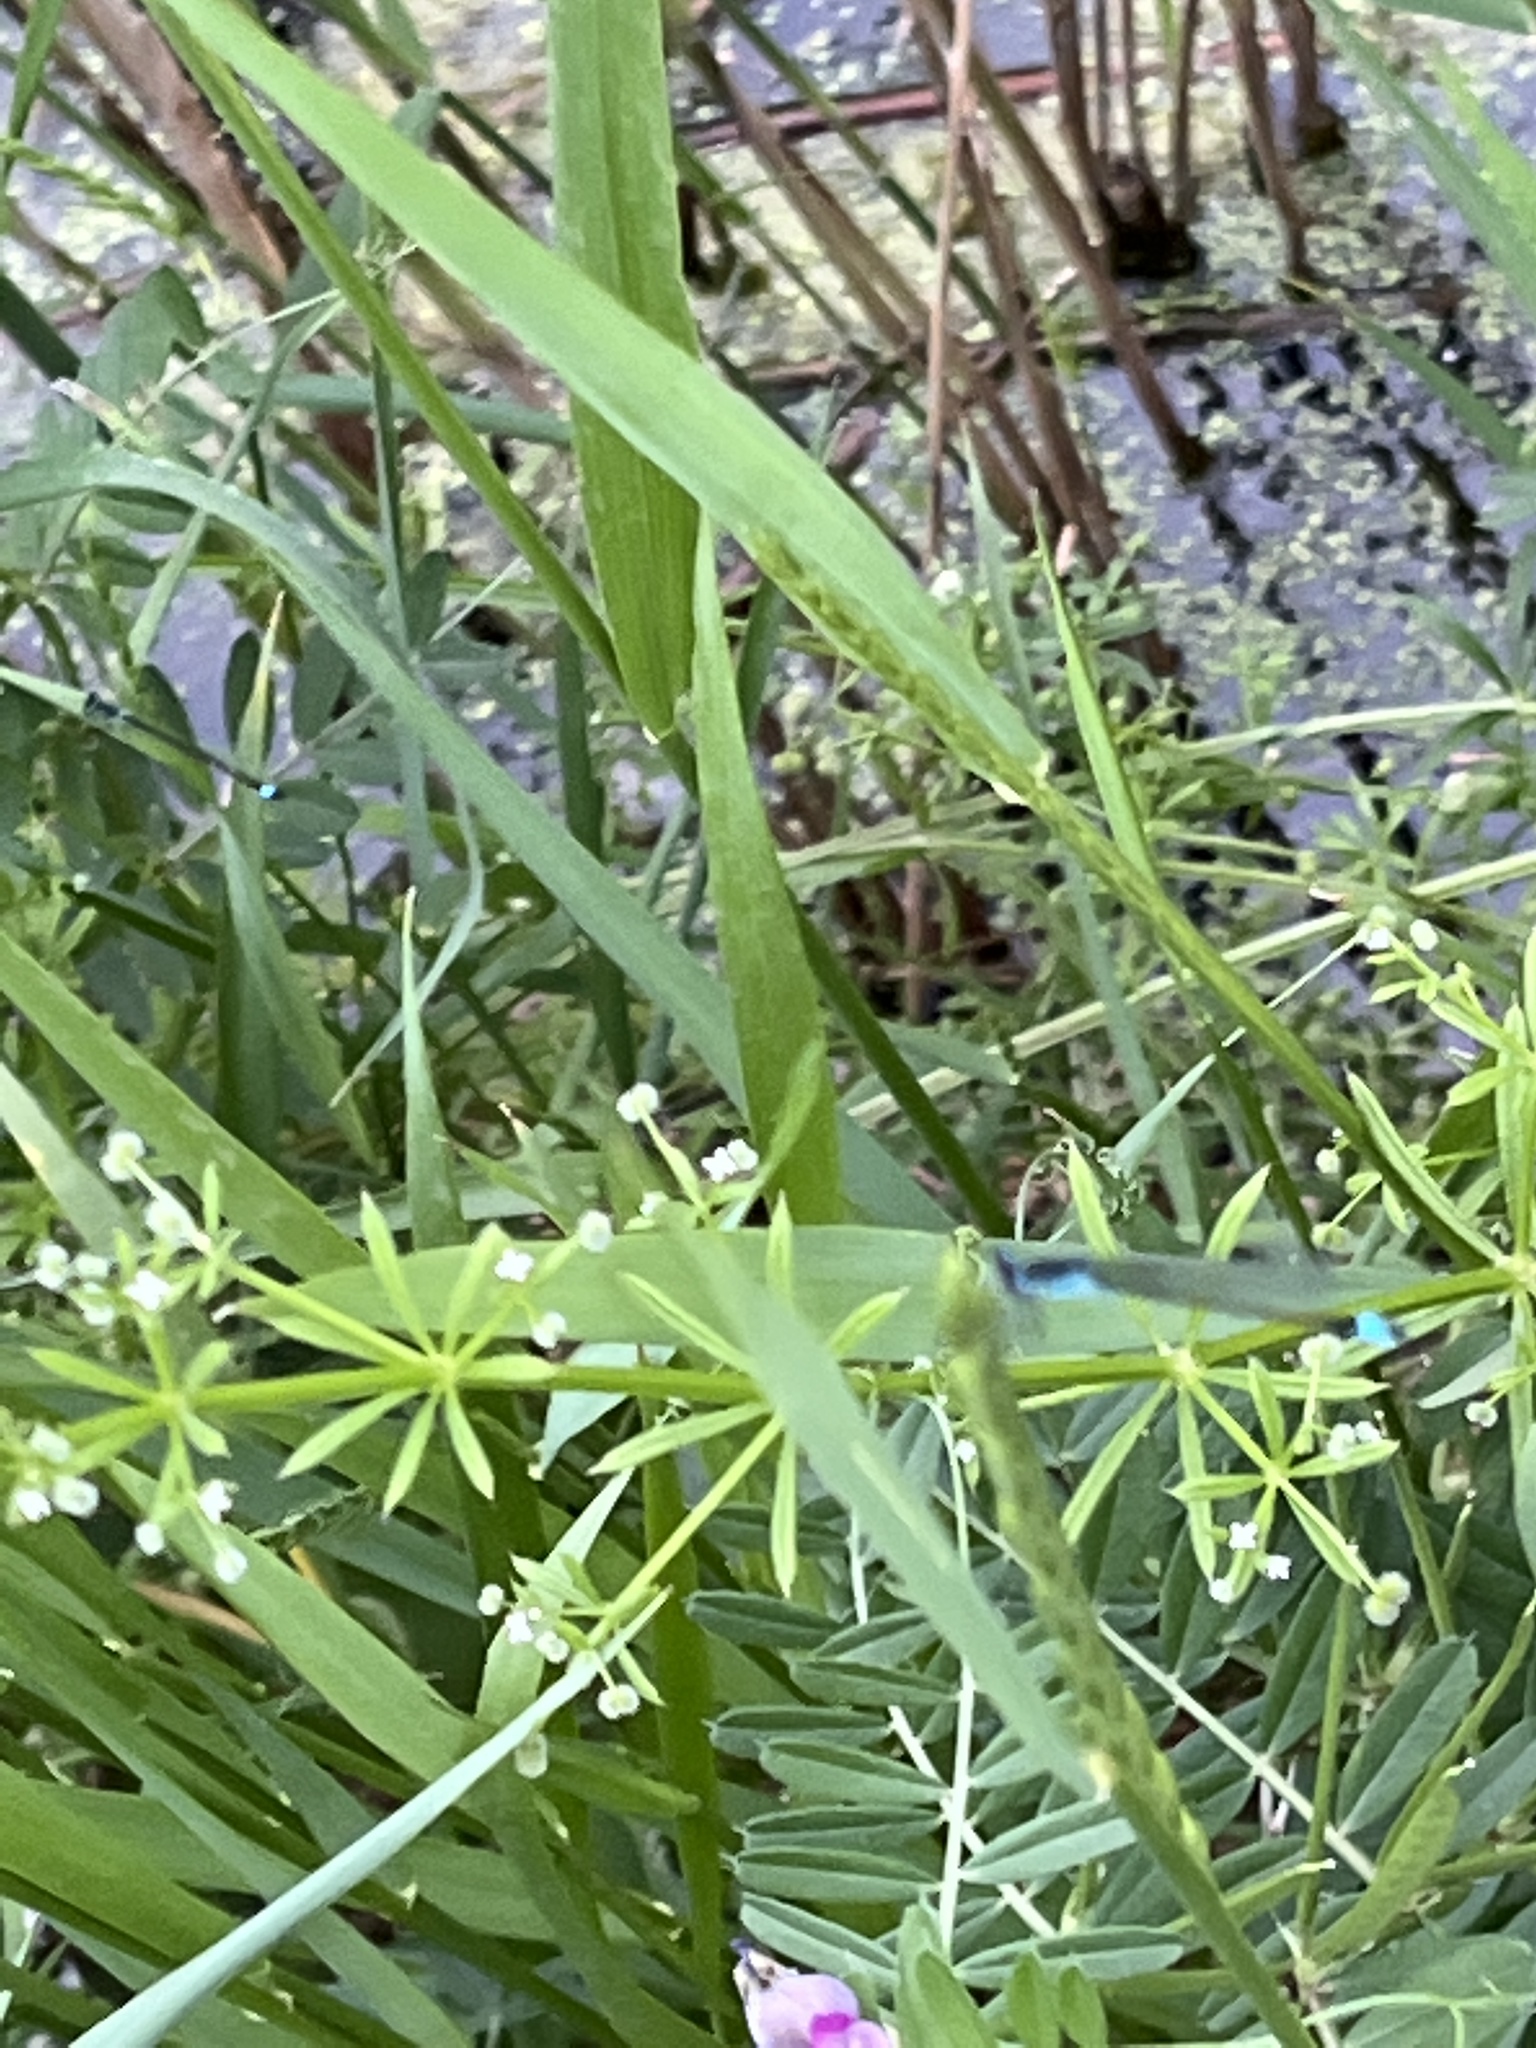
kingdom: Animalia
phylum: Arthropoda
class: Insecta
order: Odonata
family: Coenagrionidae
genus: Ischnura
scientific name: Ischnura elegans
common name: Blue-tailed damselfly
